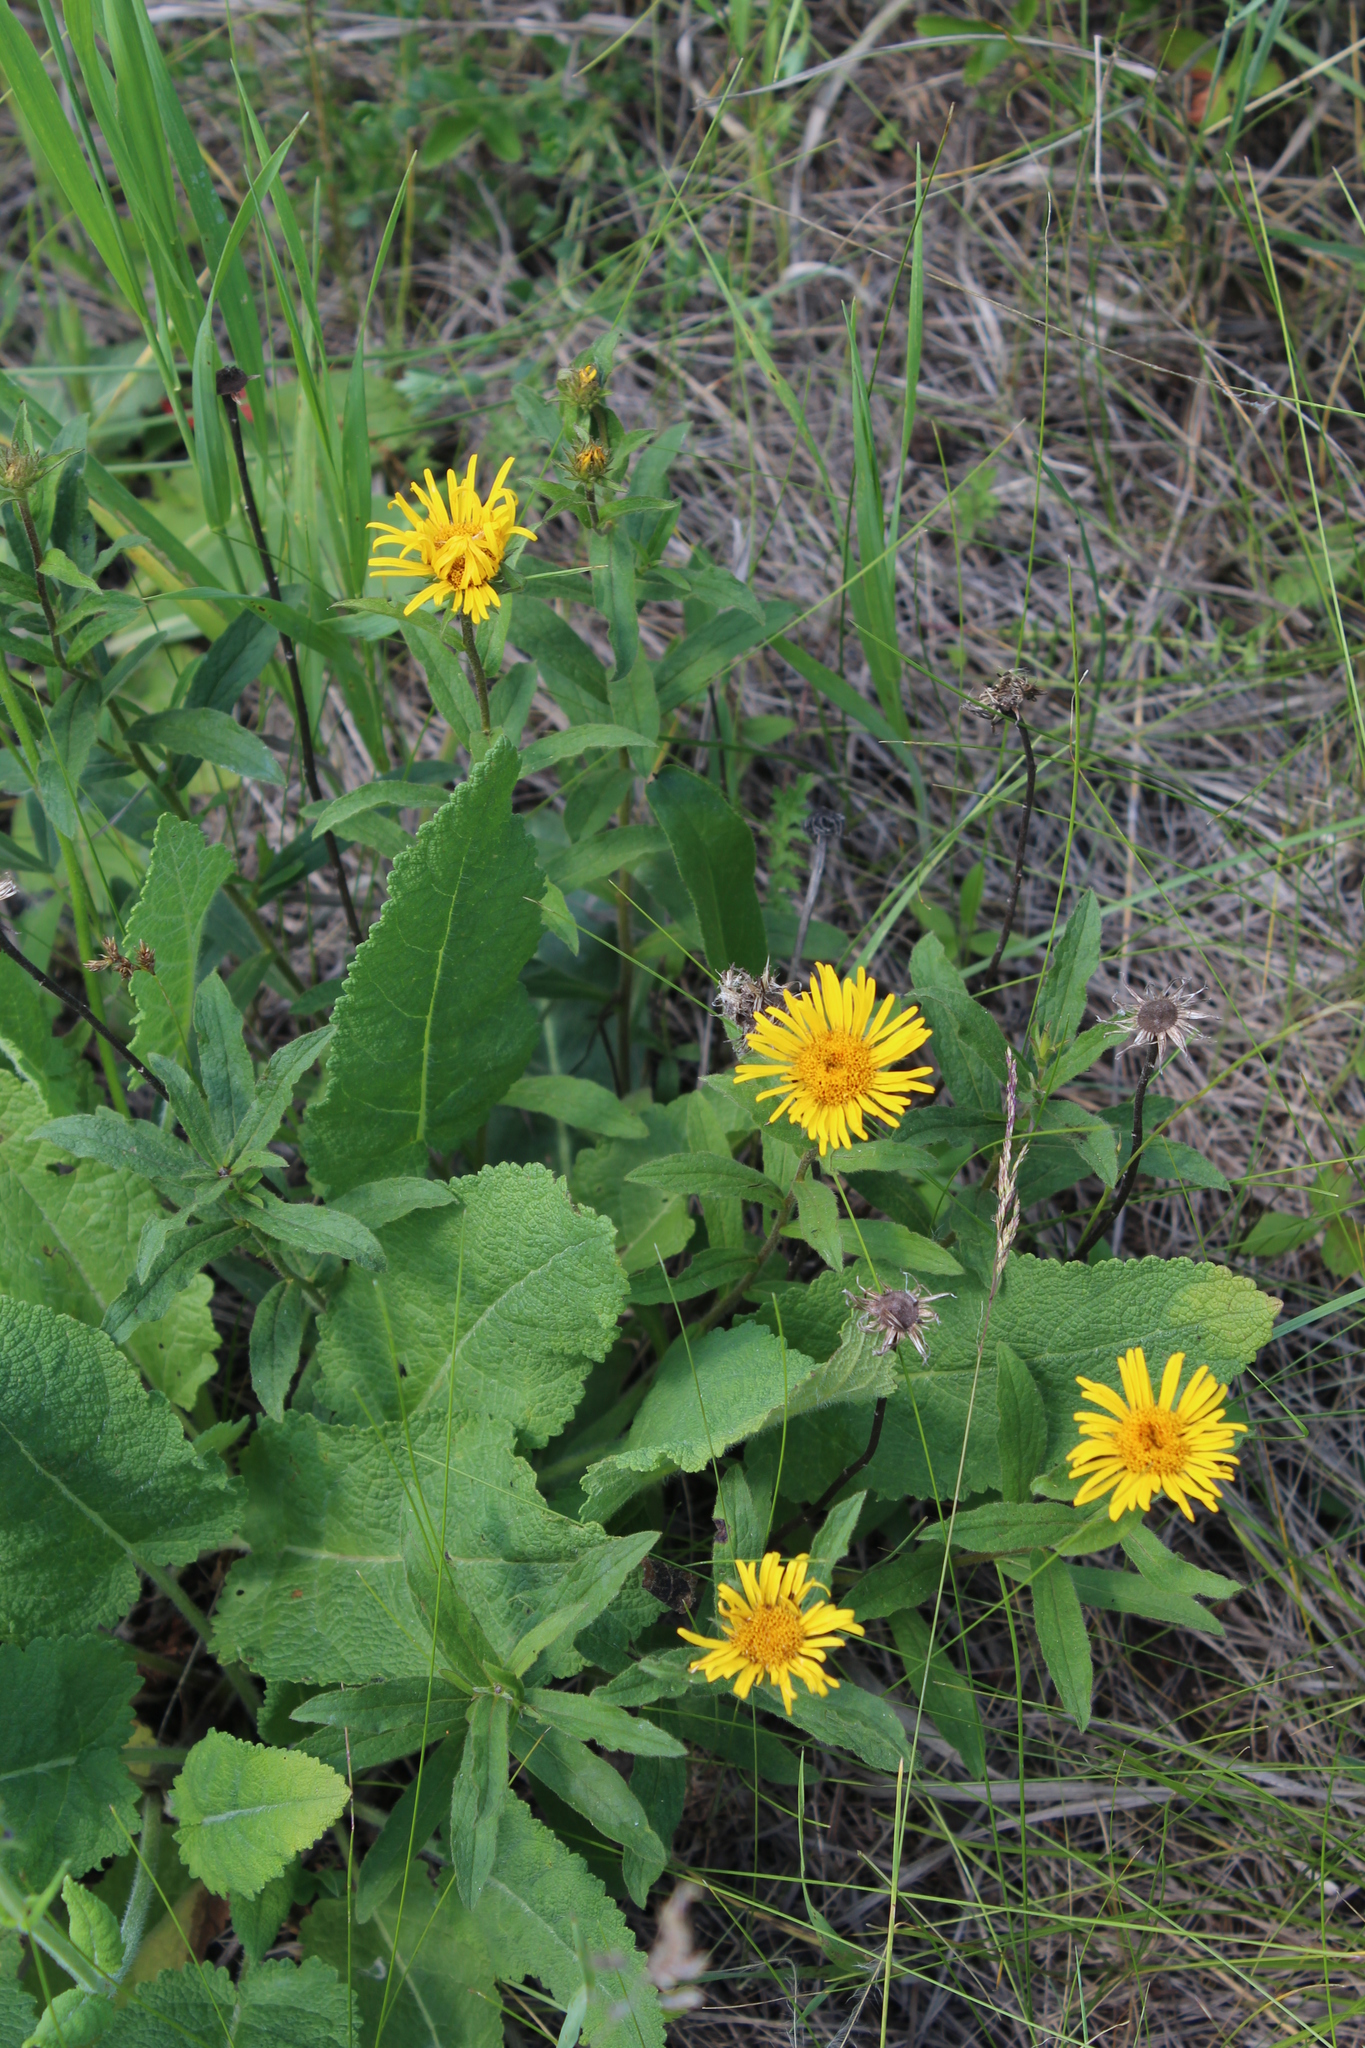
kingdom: Plantae
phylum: Tracheophyta
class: Magnoliopsida
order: Asterales
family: Asteraceae
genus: Pentanema
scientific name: Pentanema hirtum
